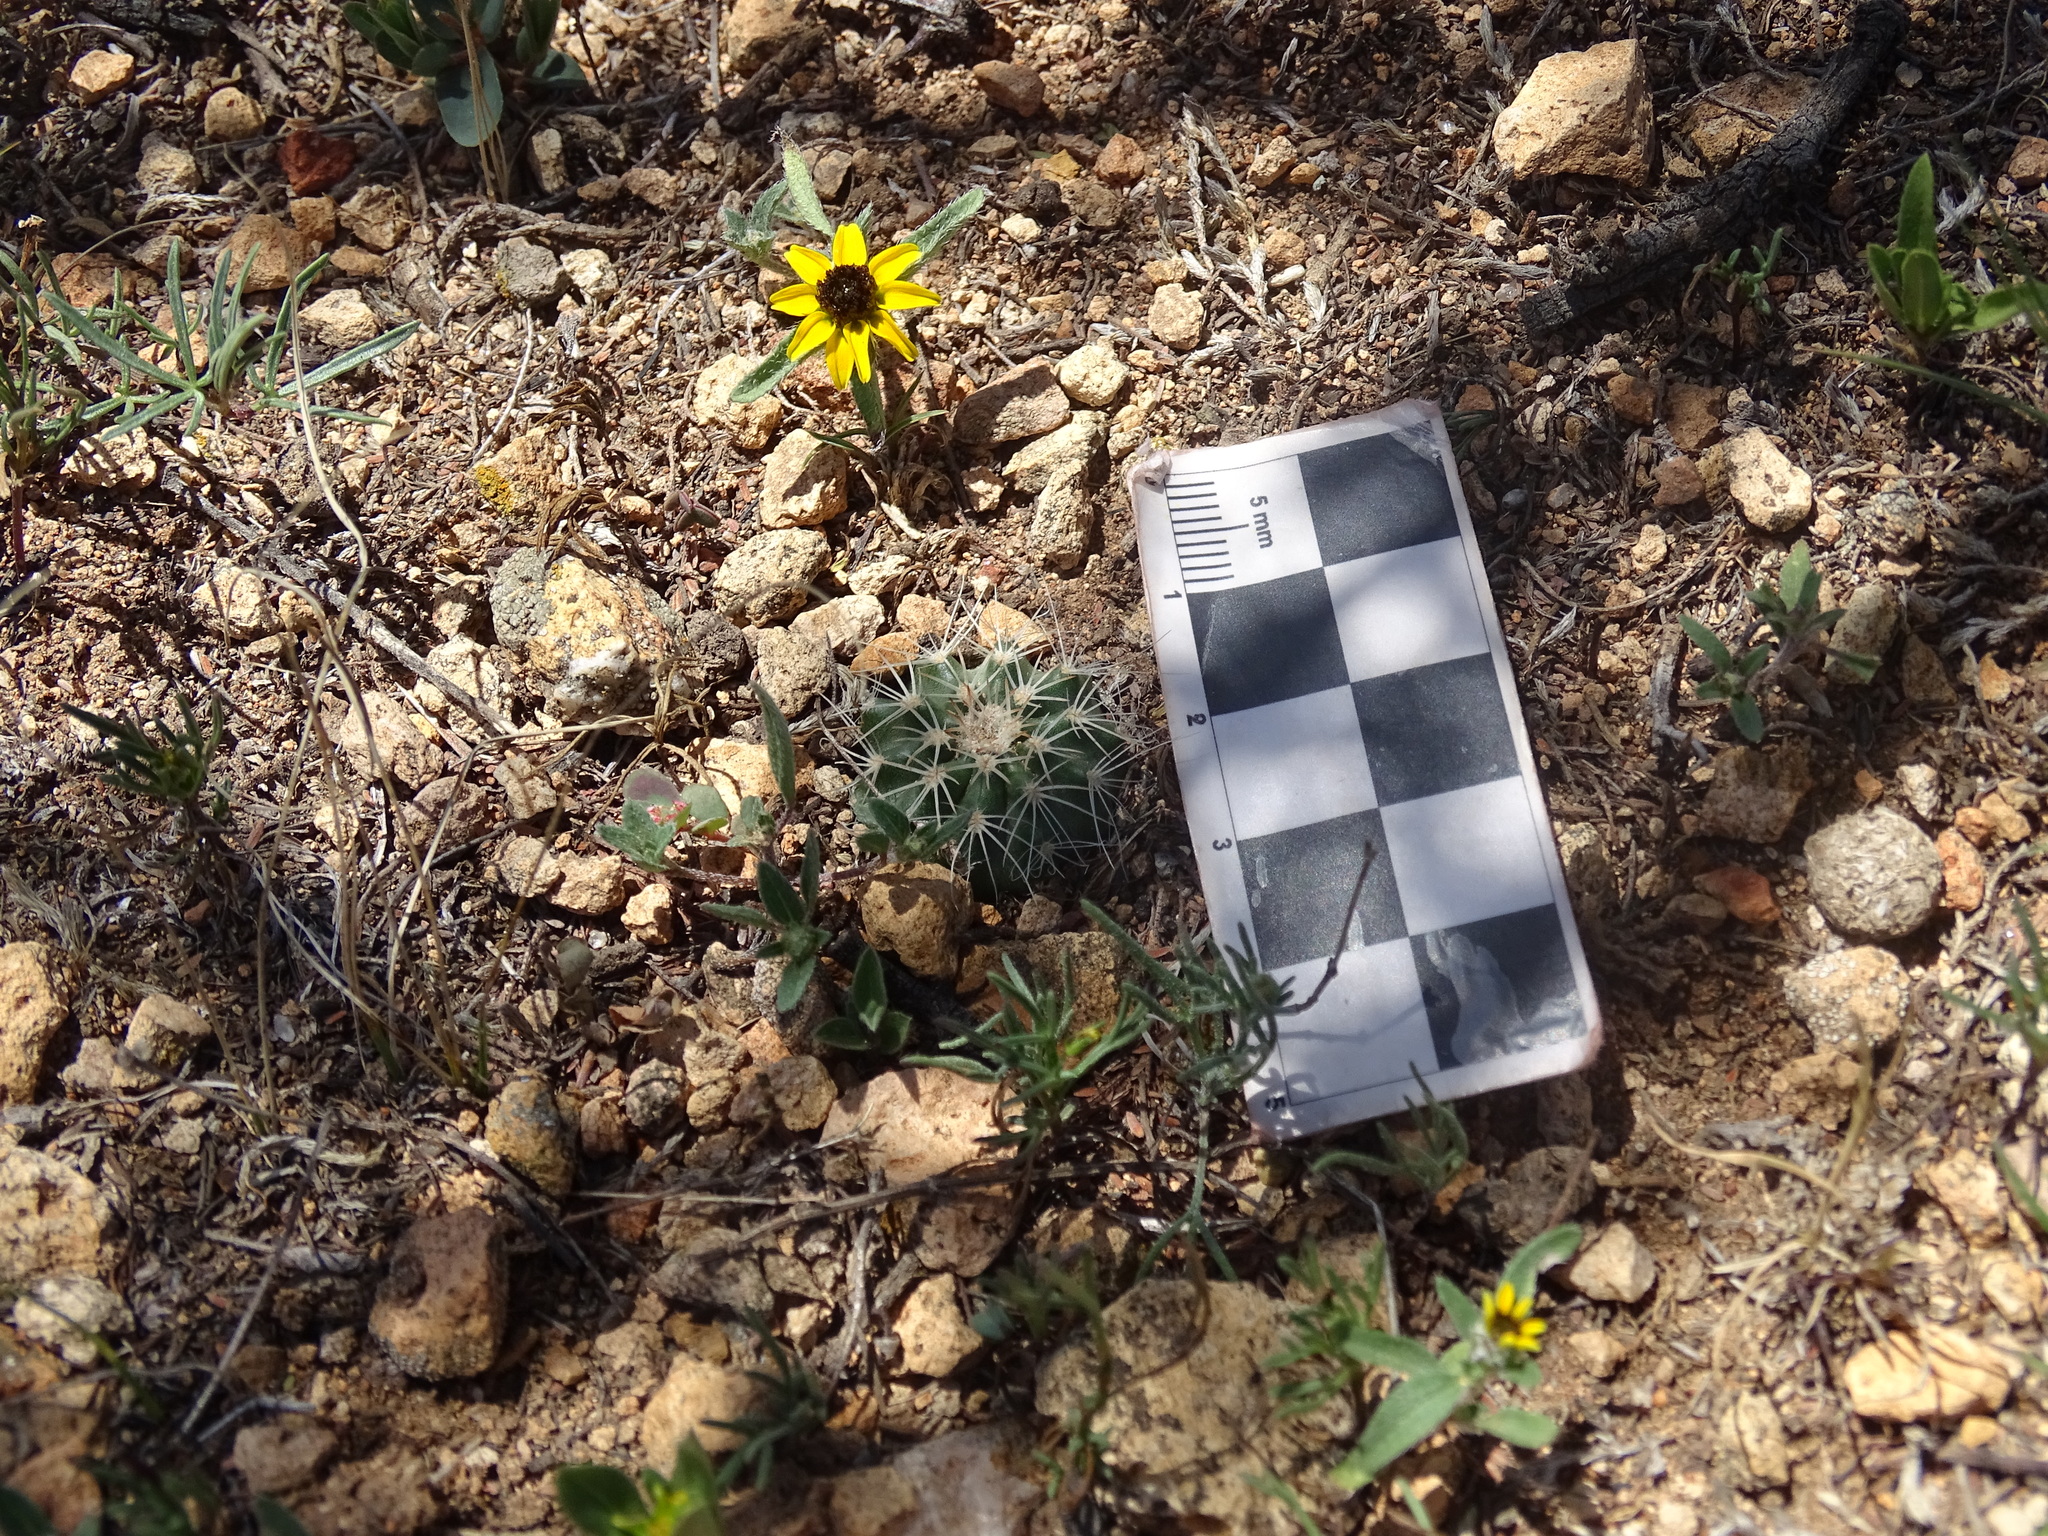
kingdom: Plantae
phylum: Tracheophyta
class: Magnoliopsida
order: Caryophyllales
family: Cactaceae
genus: Echinocereus
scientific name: Echinocereus weinbergii
